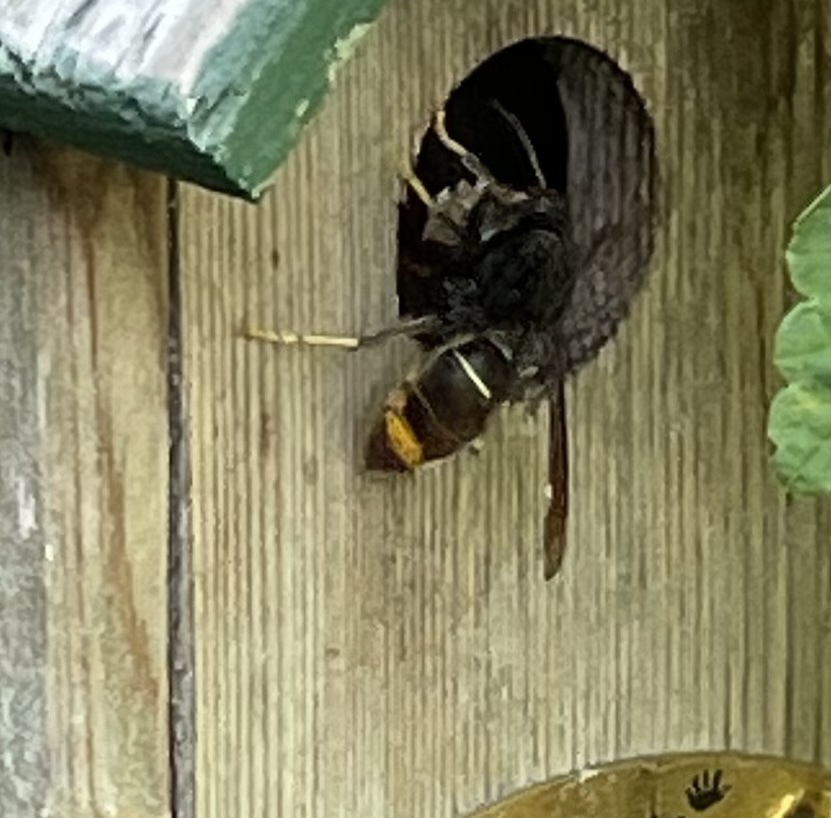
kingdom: Animalia
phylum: Arthropoda
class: Insecta
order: Hymenoptera
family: Vespidae
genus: Vespa
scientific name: Vespa velutina
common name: Asian hornet
